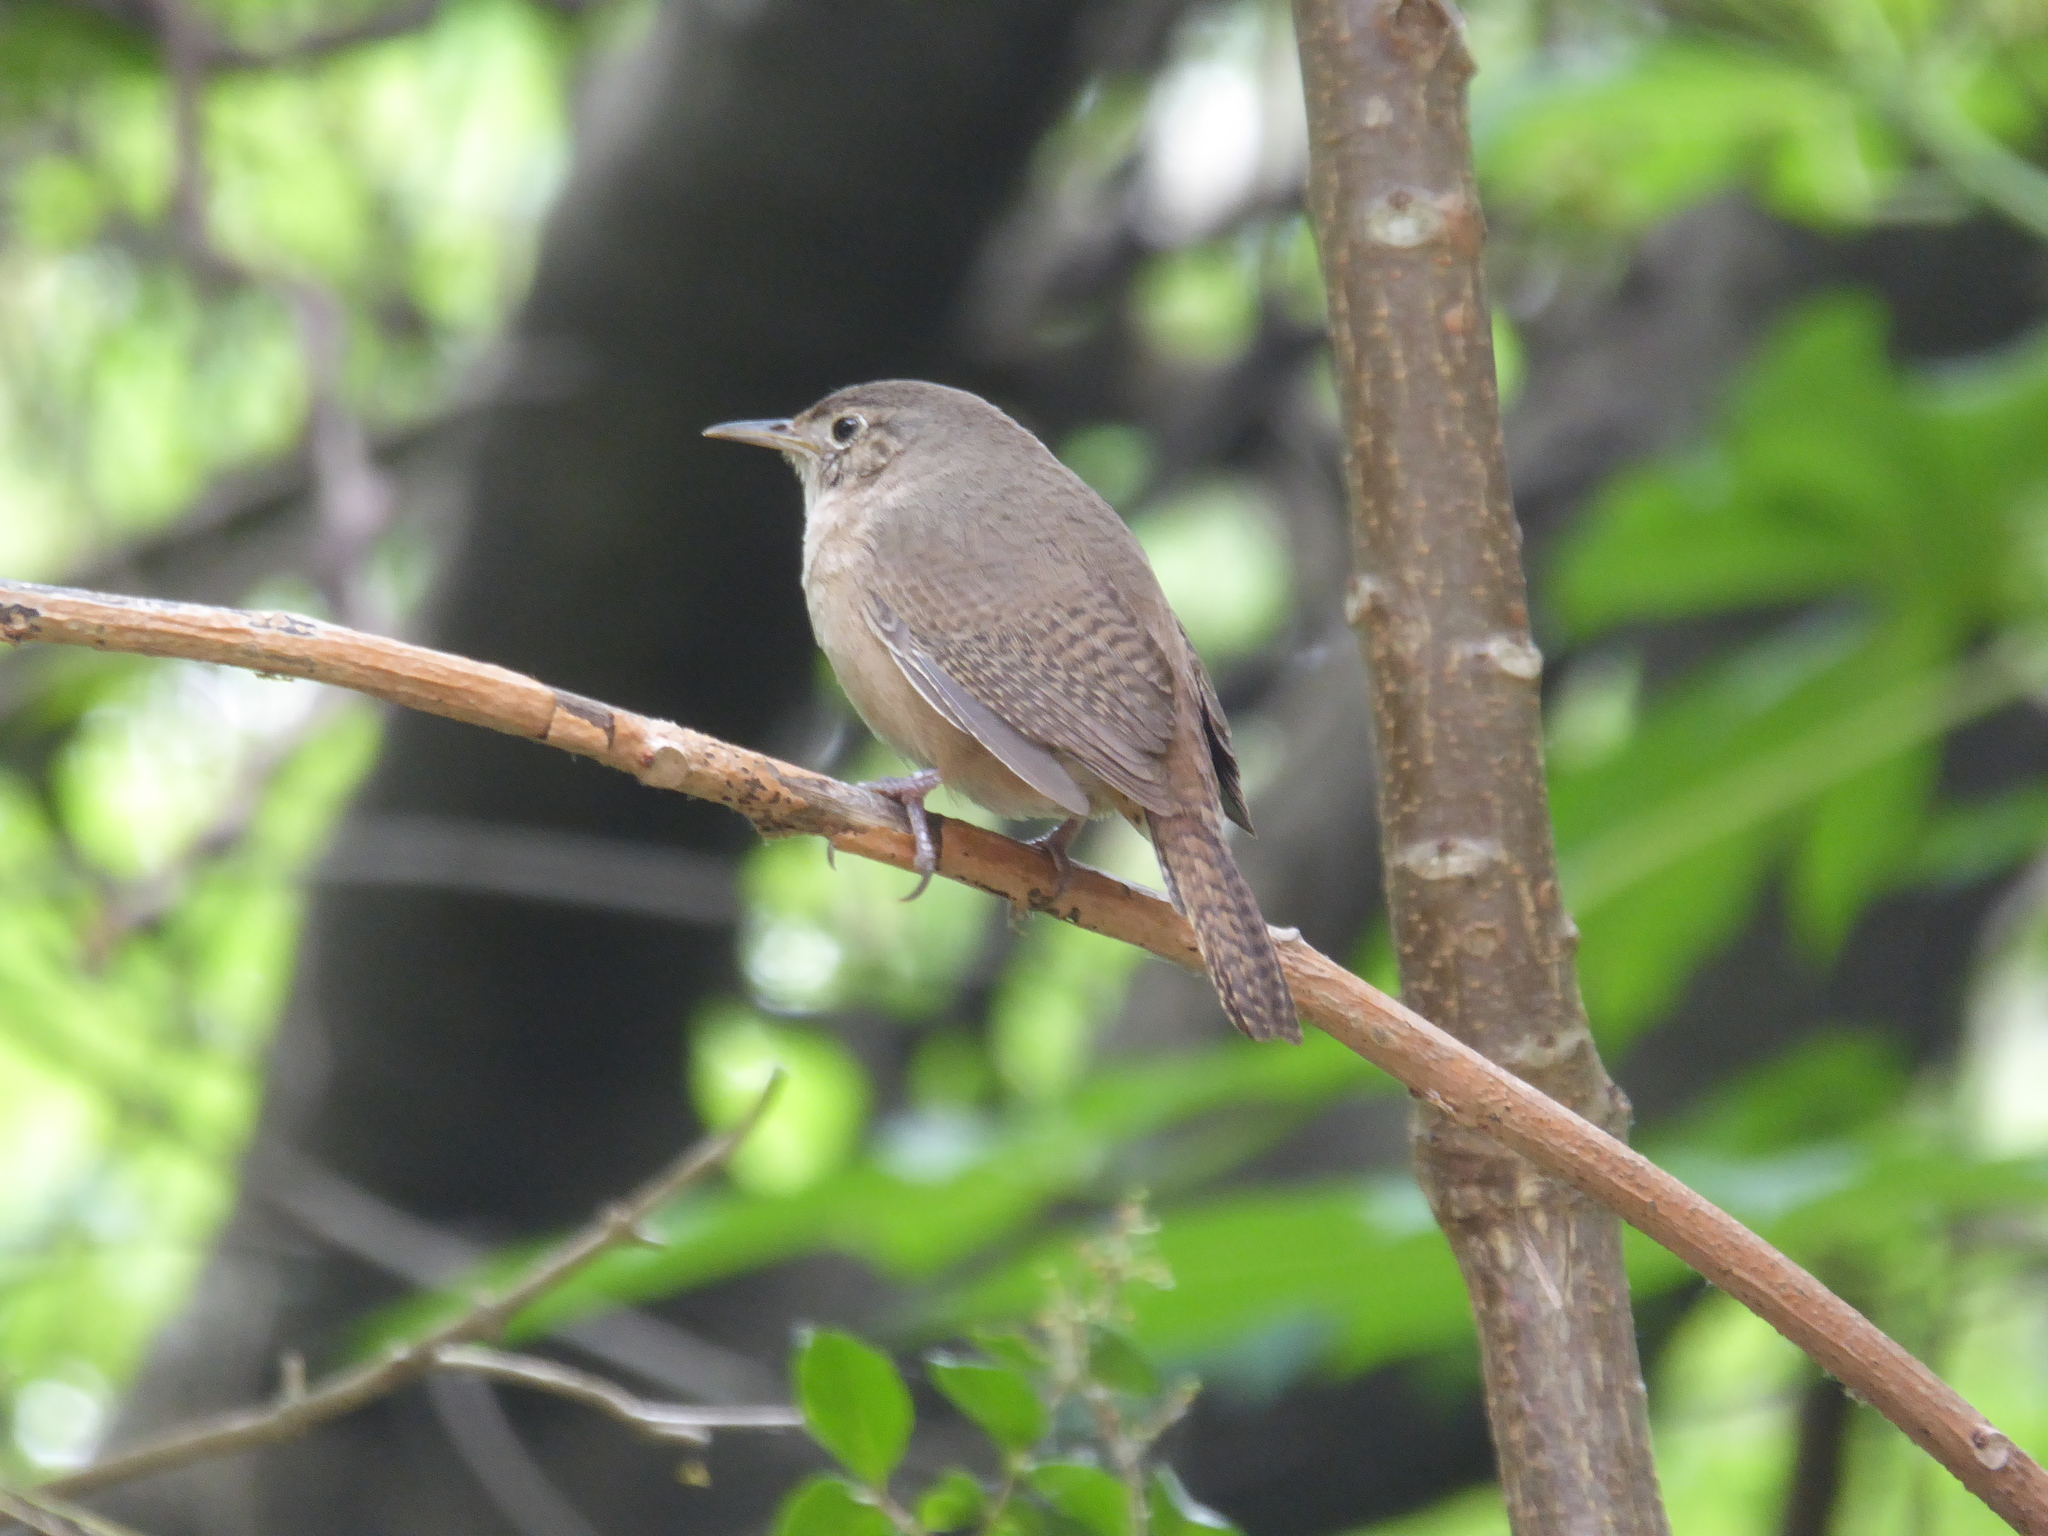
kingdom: Animalia
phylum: Chordata
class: Aves
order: Passeriformes
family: Troglodytidae
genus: Troglodytes
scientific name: Troglodytes aedon
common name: House wren
